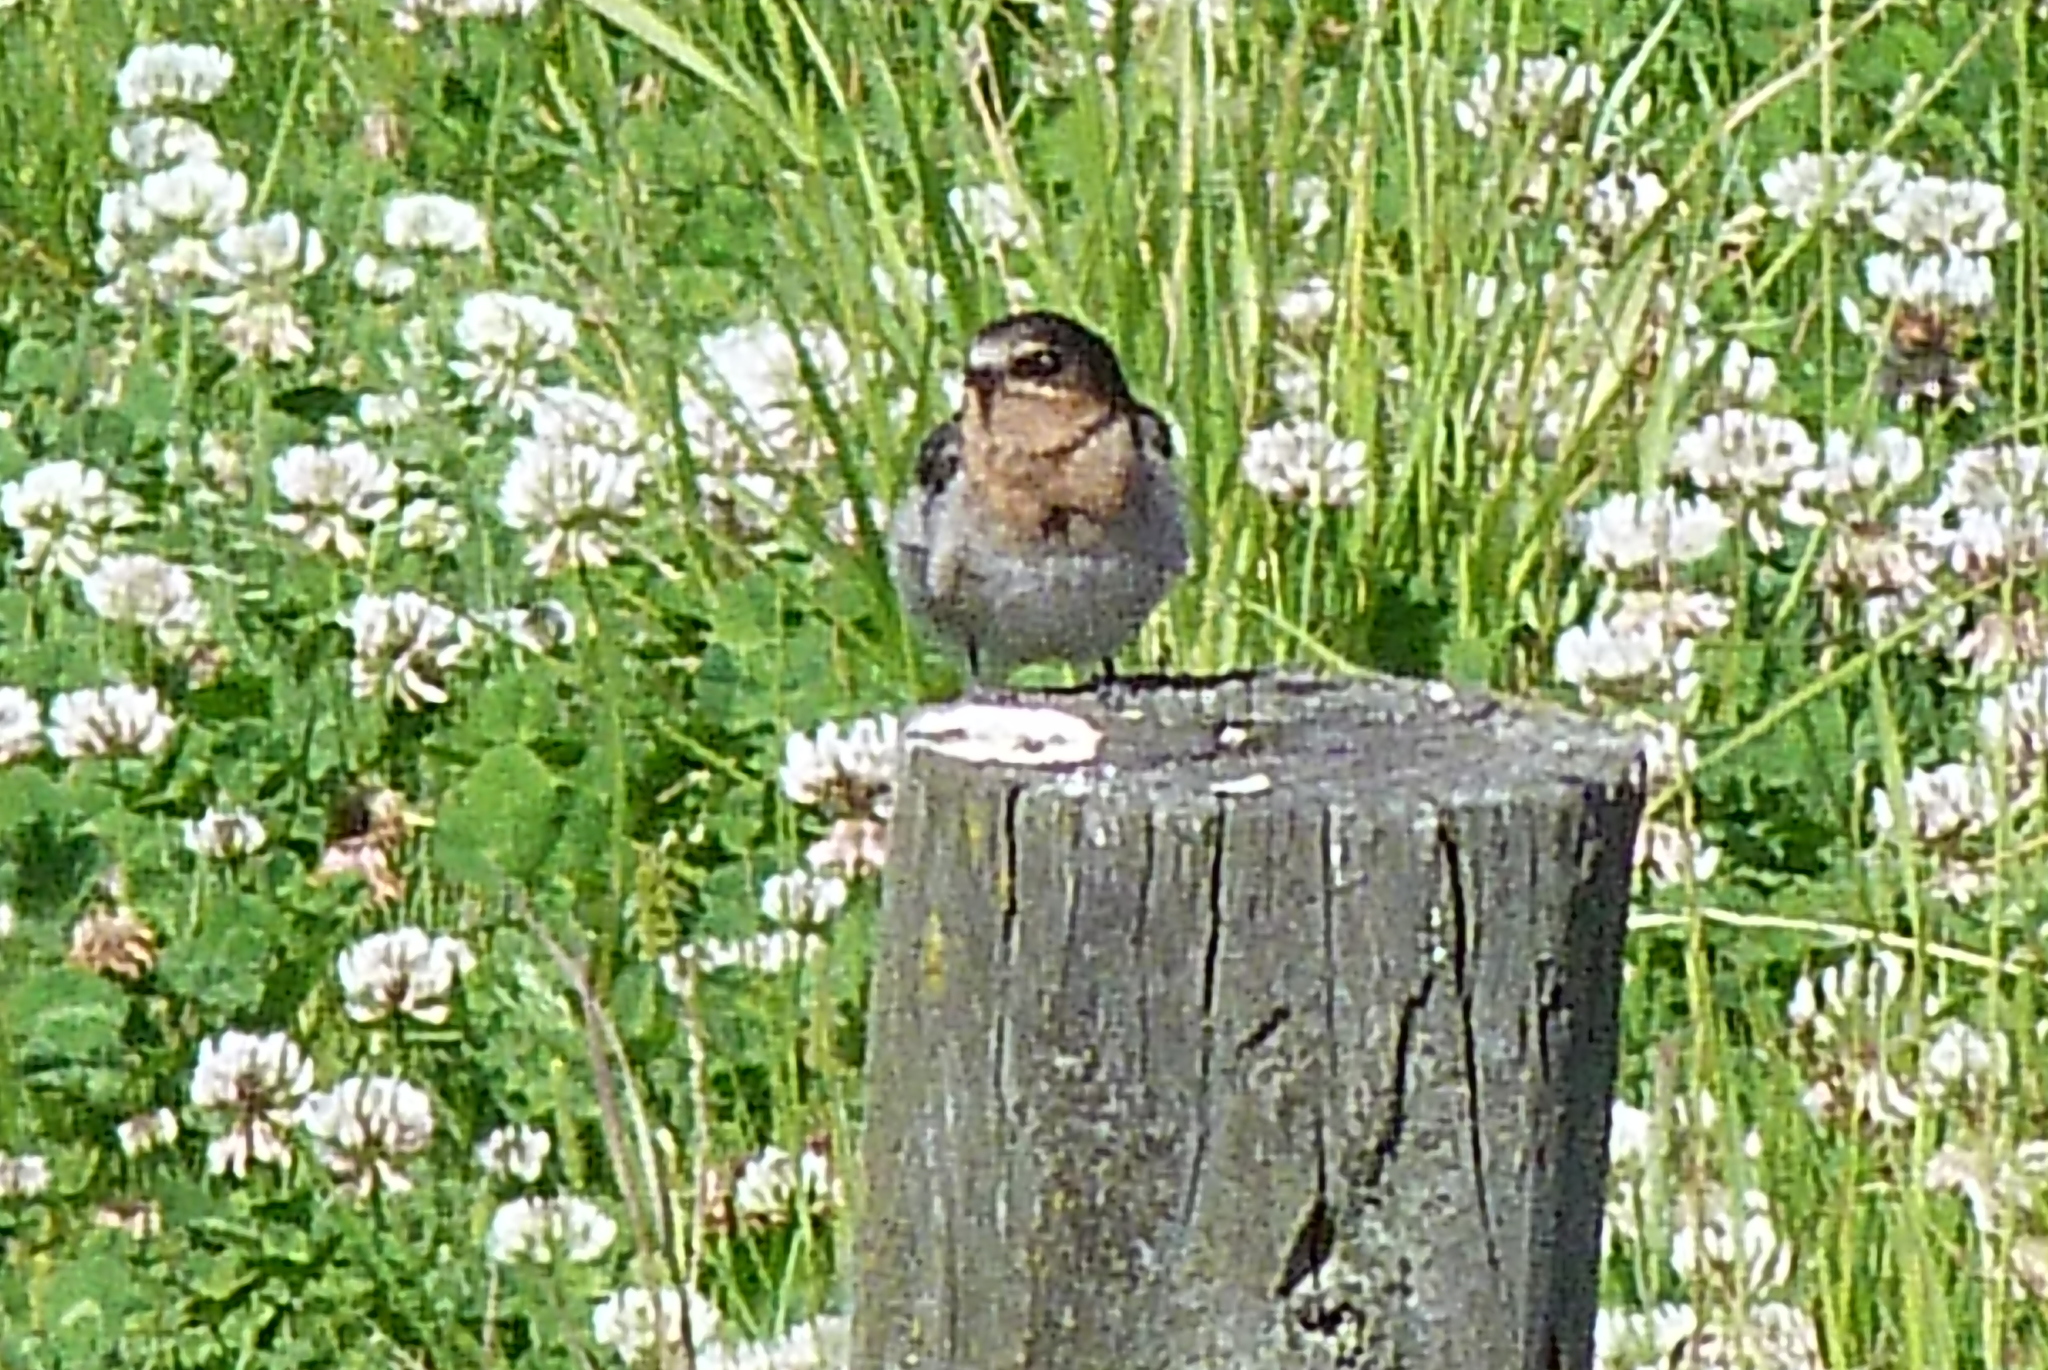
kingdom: Animalia
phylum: Chordata
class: Aves
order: Passeriformes
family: Hirundinidae
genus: Hirundo
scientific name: Hirundo neoxena
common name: Welcome swallow
